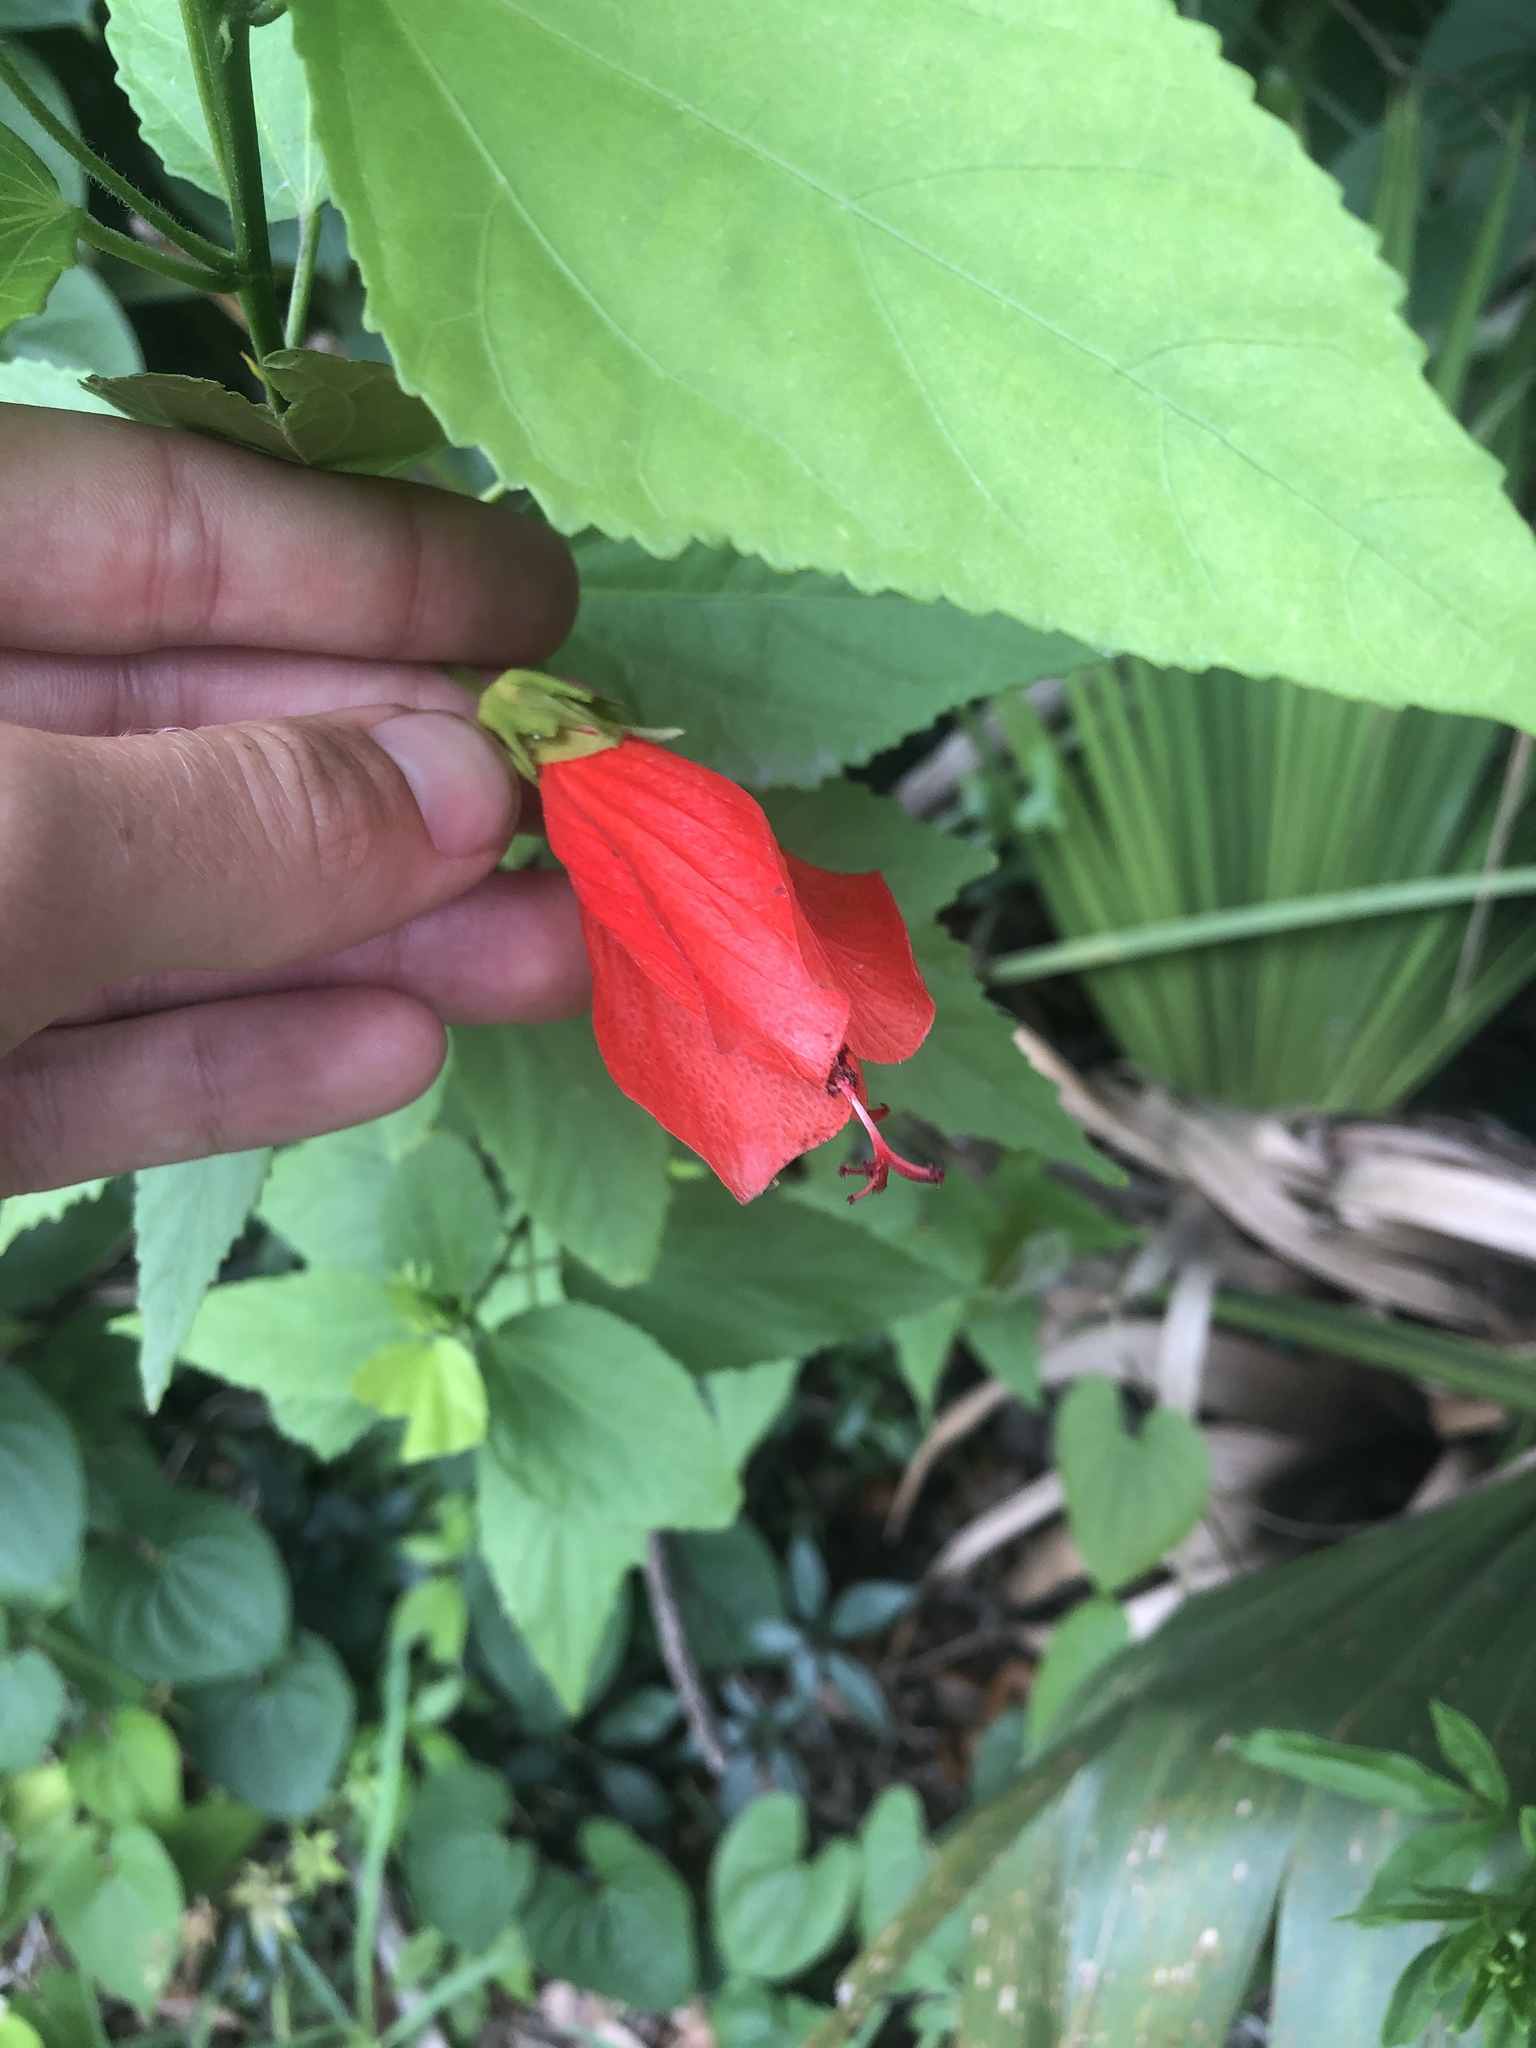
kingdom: Plantae
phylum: Tracheophyta
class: Magnoliopsida
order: Malvales
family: Malvaceae
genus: Malvaviscus
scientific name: Malvaviscus penduliflorus
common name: Mazapan
